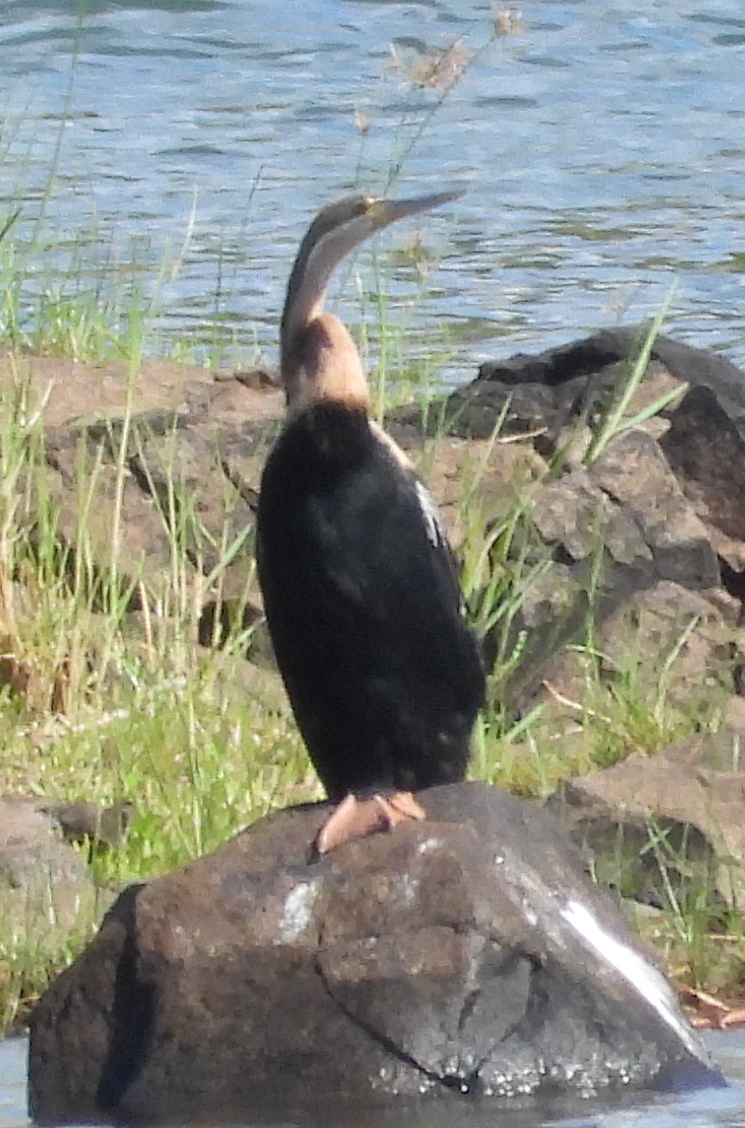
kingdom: Animalia
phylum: Chordata
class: Aves
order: Suliformes
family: Anhingidae
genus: Anhinga
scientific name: Anhinga rufa
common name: African darter
